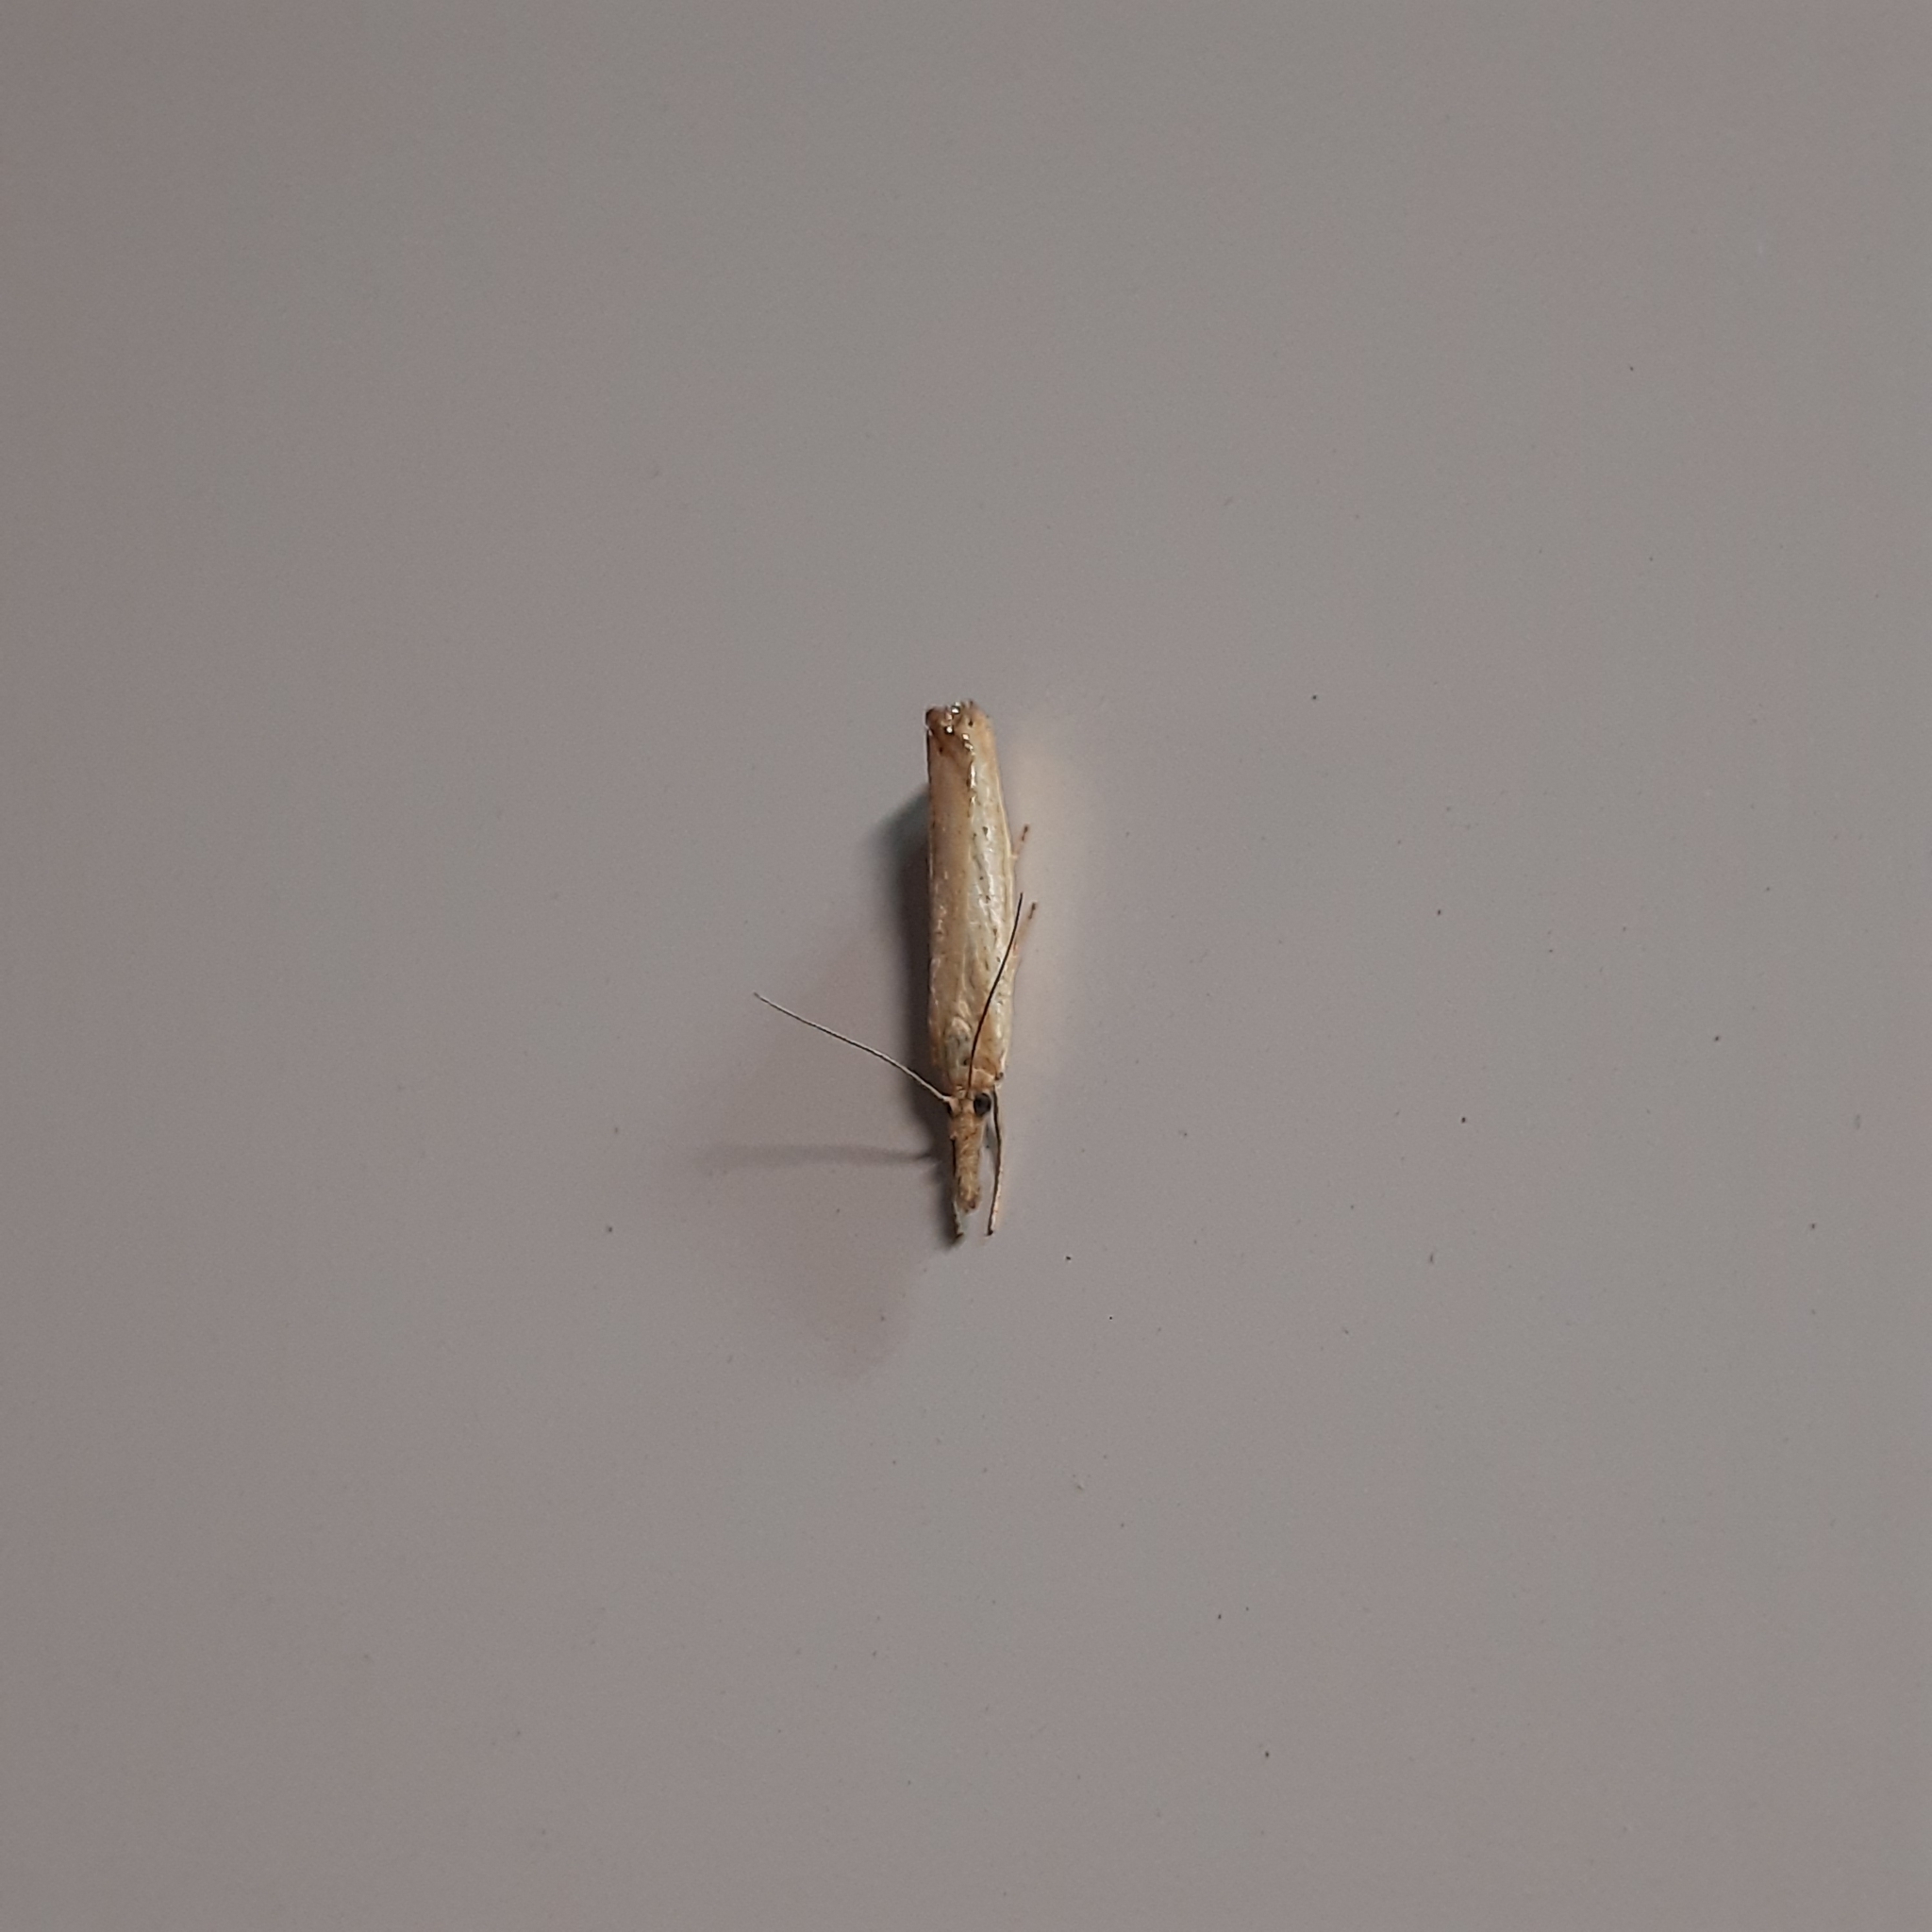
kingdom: Animalia
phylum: Arthropoda
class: Insecta
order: Lepidoptera
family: Crambidae
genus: Agriphila
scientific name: Agriphila straminella
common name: Straw grass-veneer
